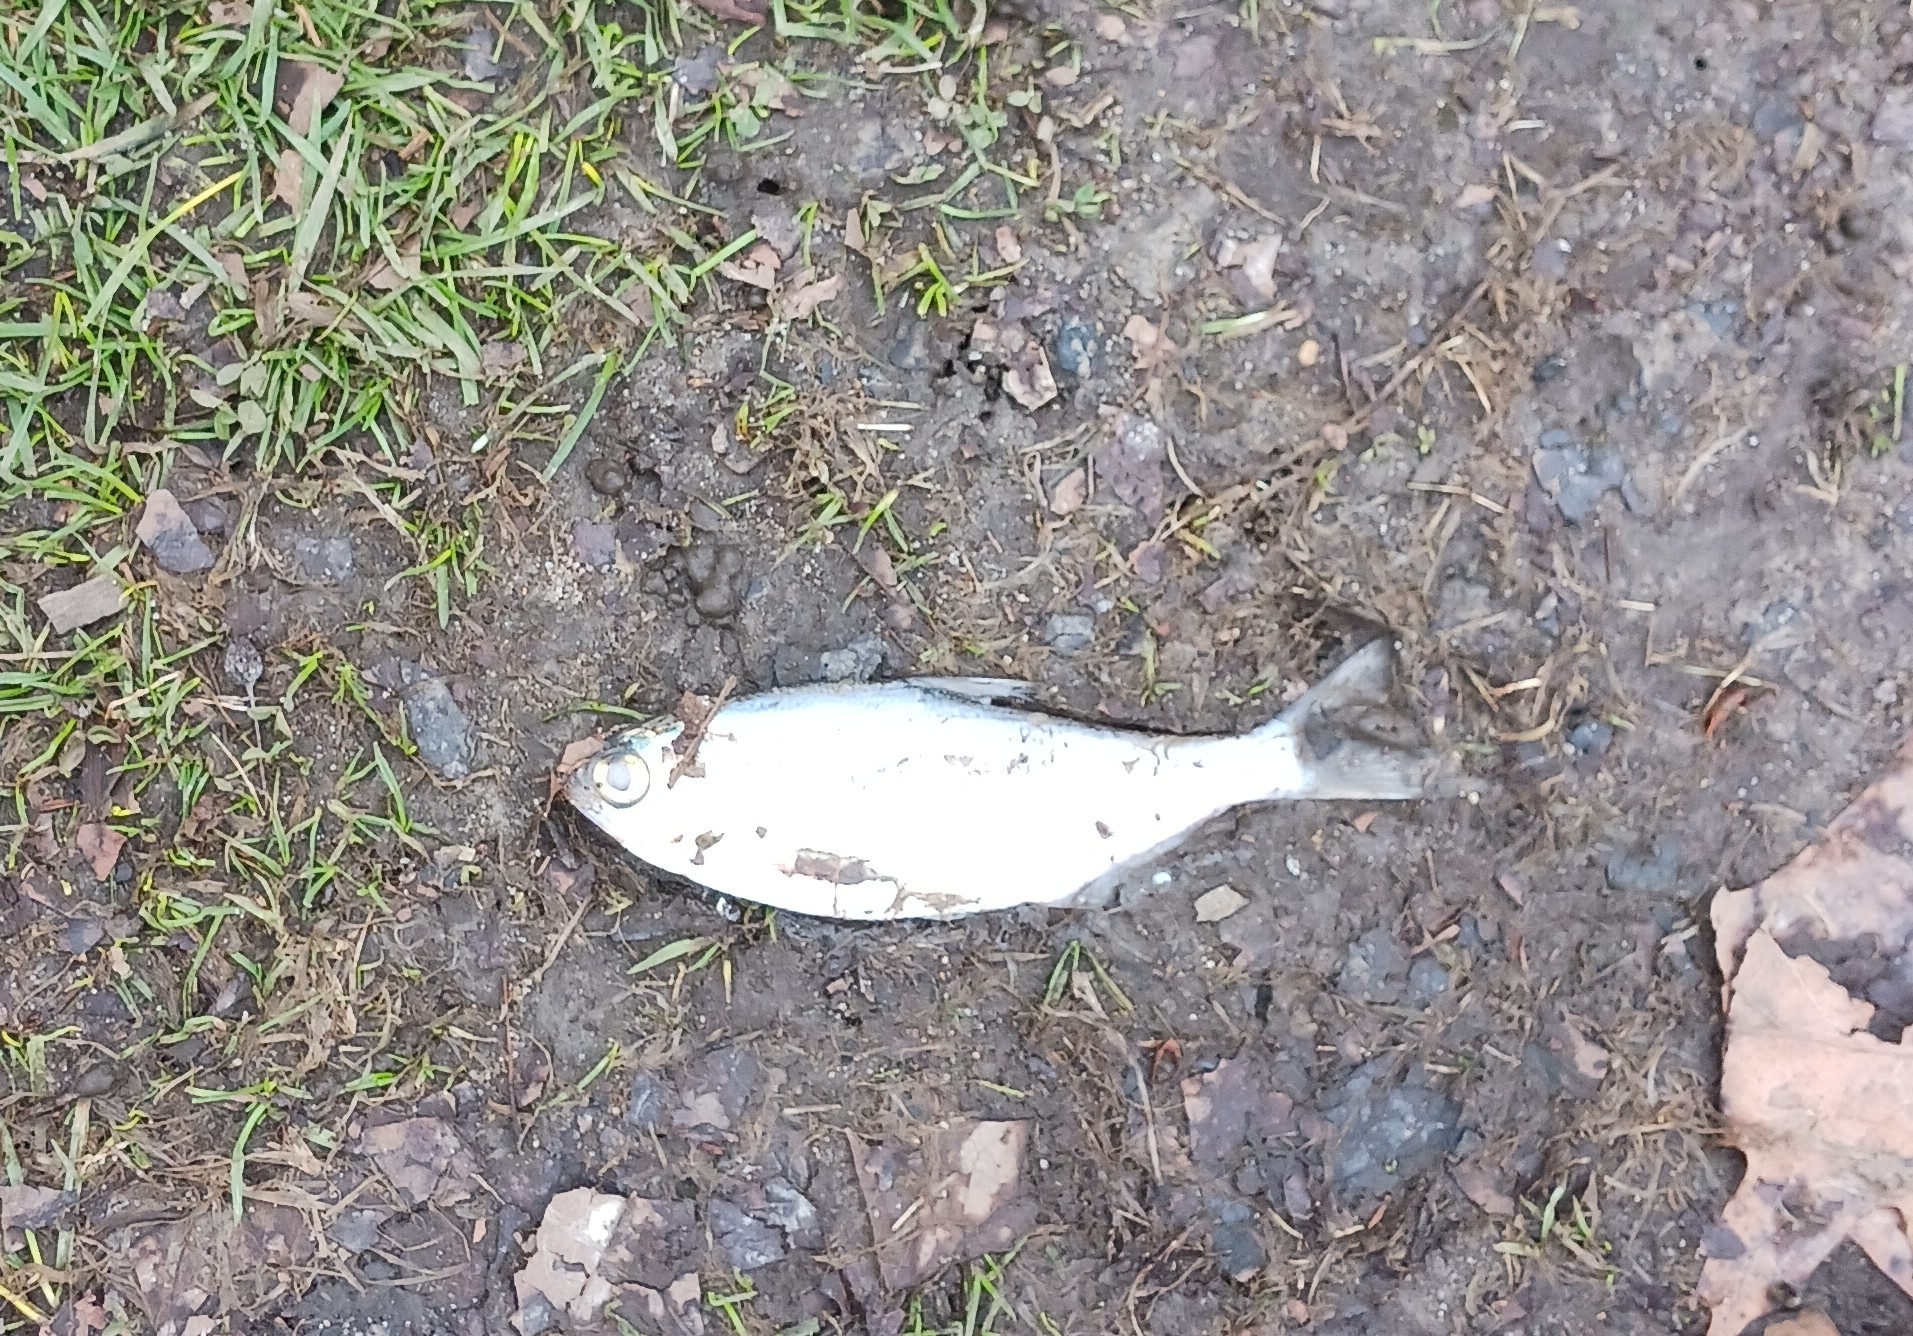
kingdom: Animalia
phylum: Chordata
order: Clupeiformes
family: Clupeidae
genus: Dorosoma
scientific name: Dorosoma cepedianum
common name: Gizzard shad
